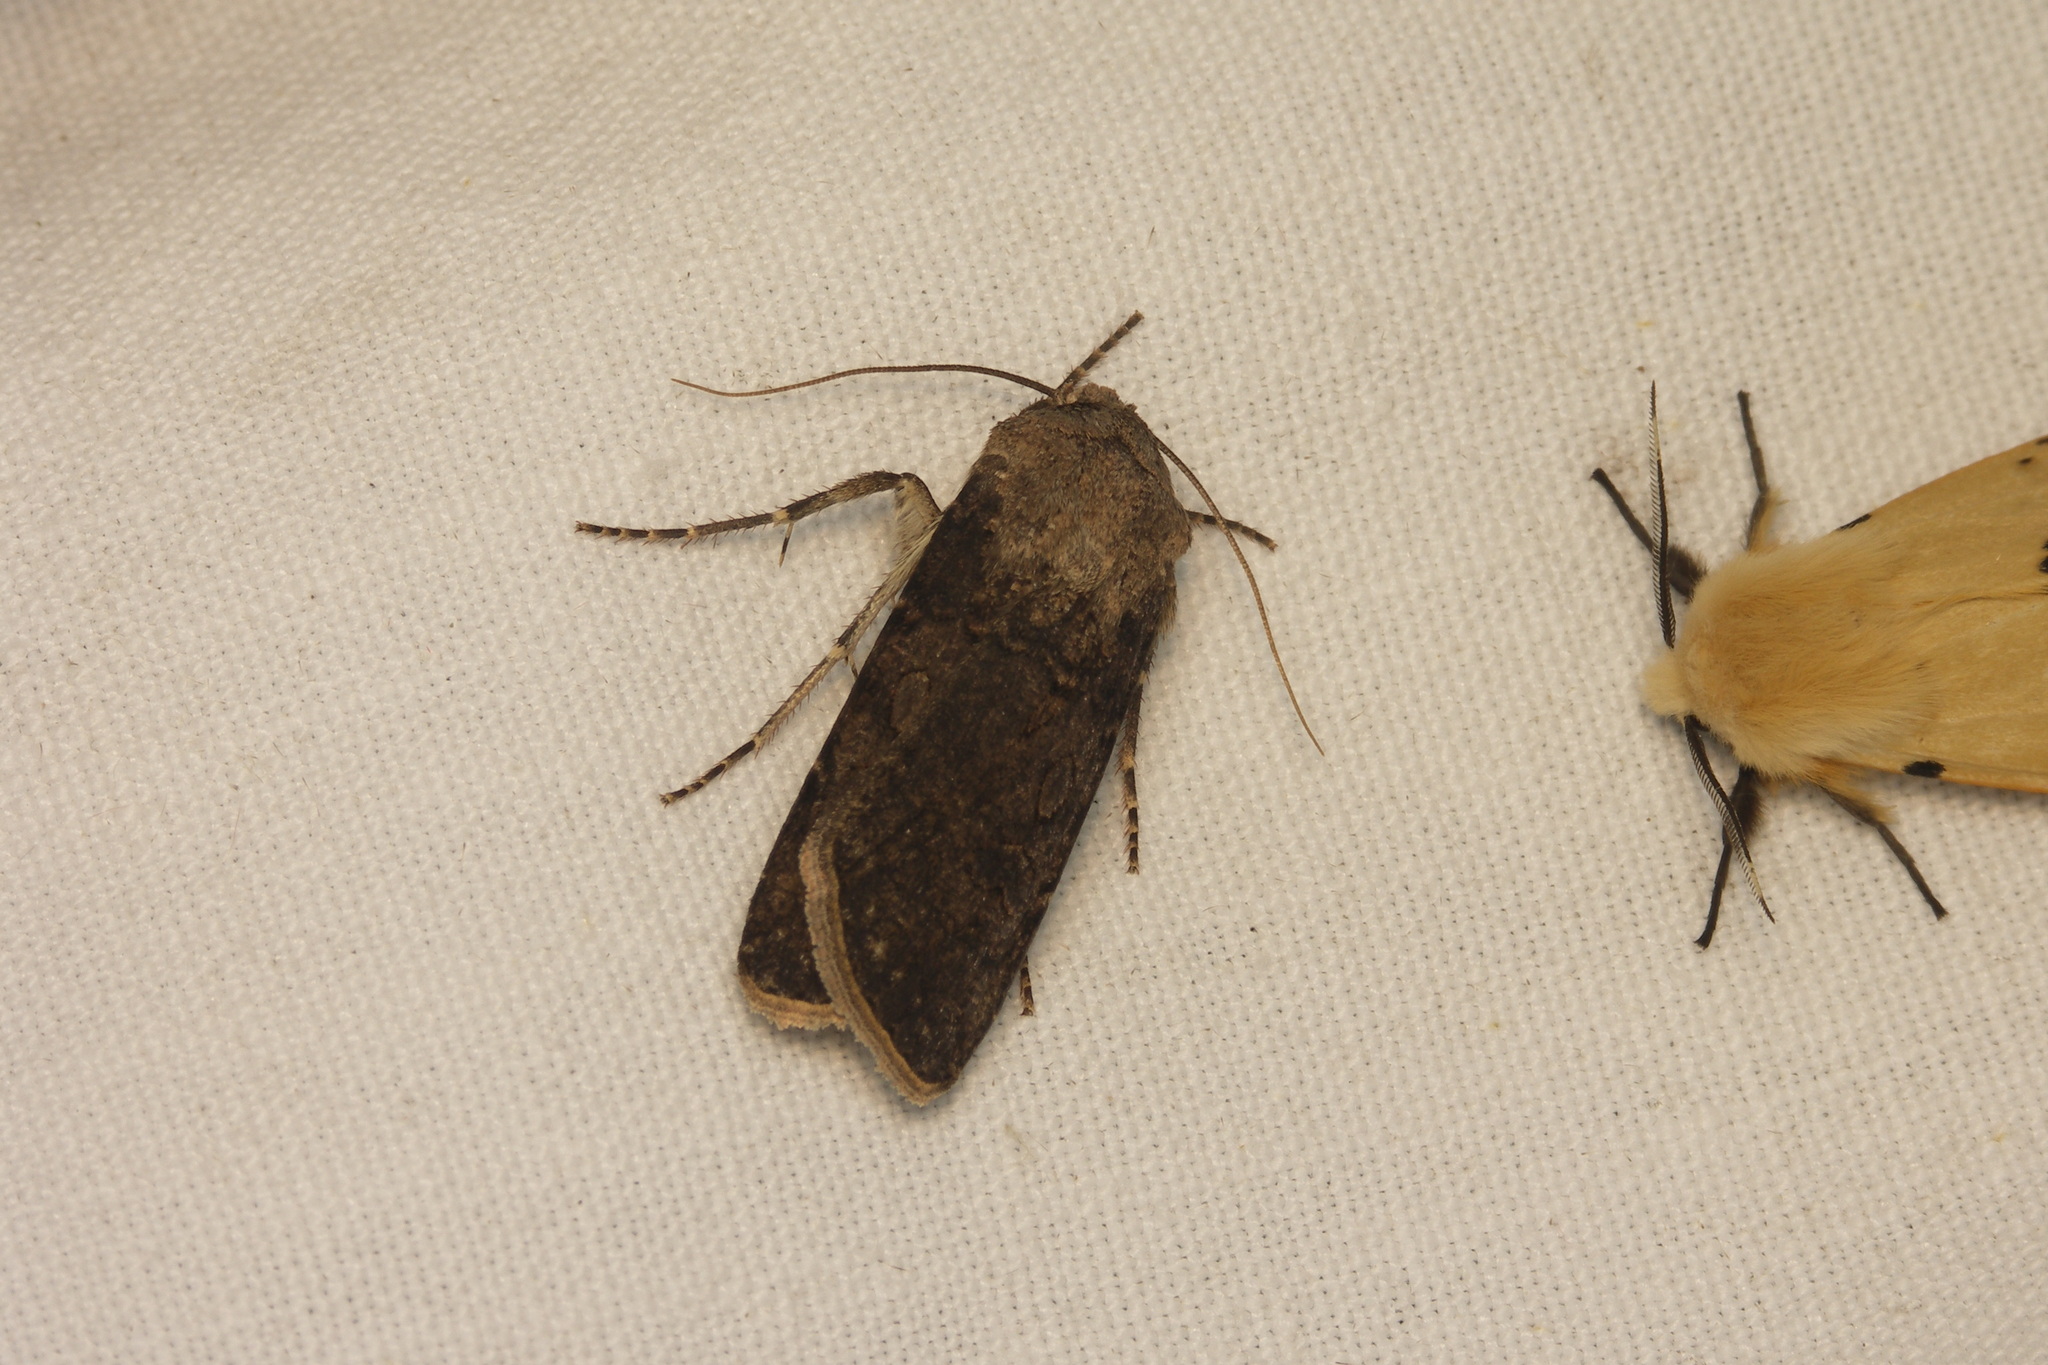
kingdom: Animalia
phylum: Arthropoda
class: Insecta
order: Lepidoptera
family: Noctuidae
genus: Agrotis
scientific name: Agrotis segetum
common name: Turnip moth
